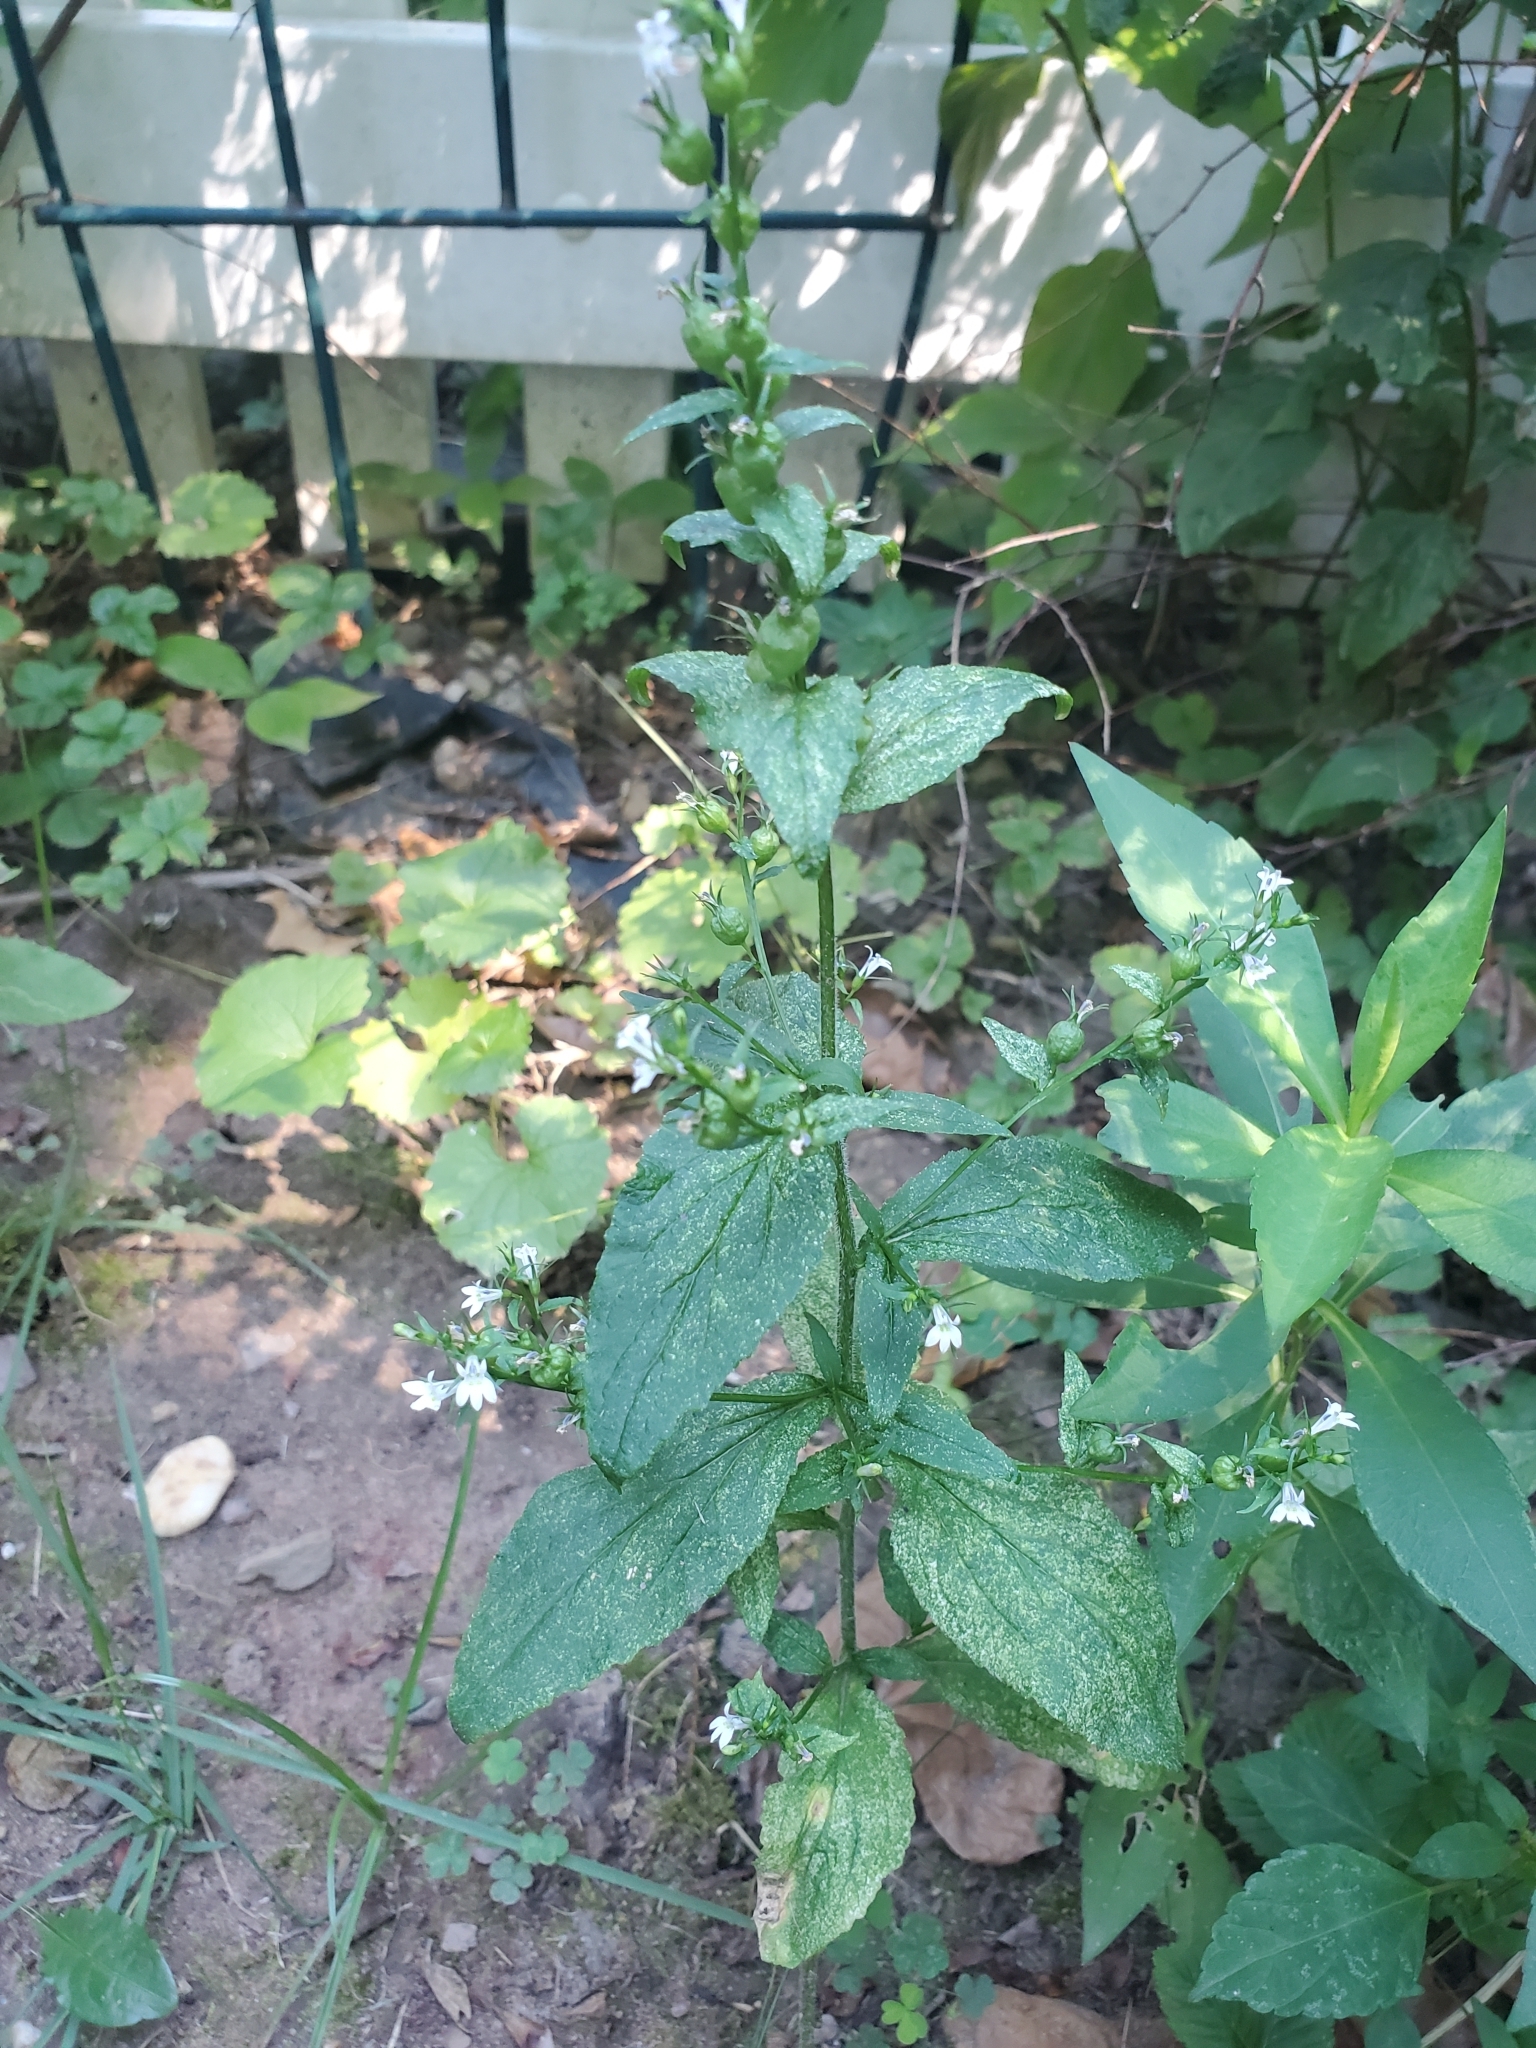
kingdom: Plantae
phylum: Tracheophyta
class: Magnoliopsida
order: Asterales
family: Campanulaceae
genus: Lobelia
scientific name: Lobelia inflata
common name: Indian tobacco
